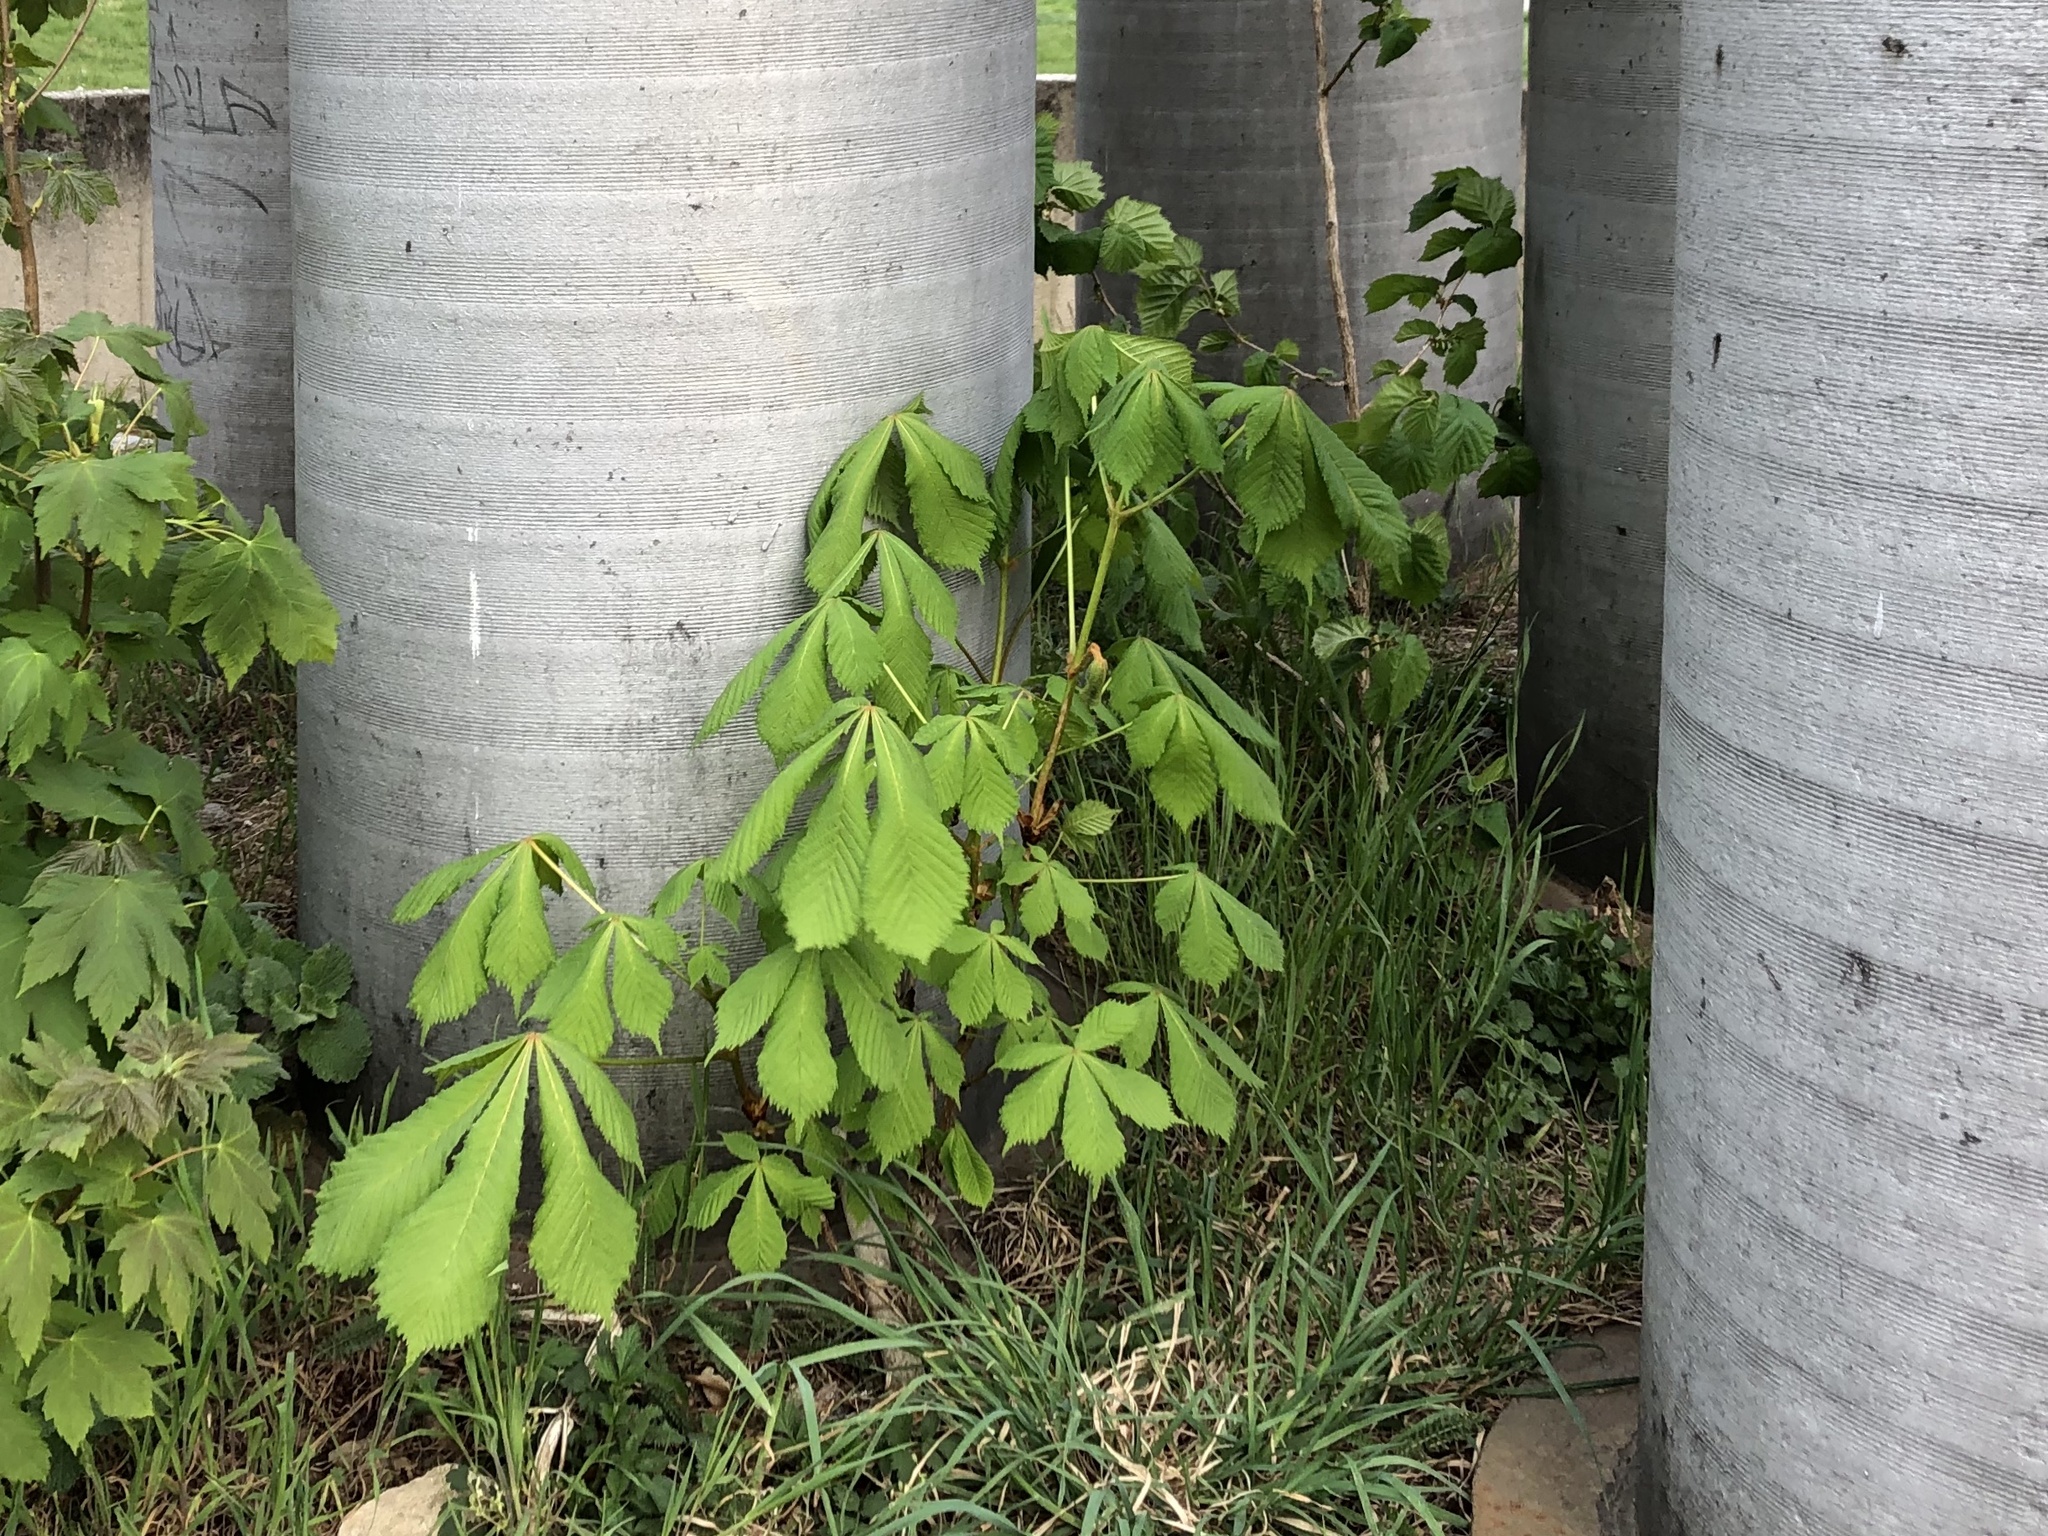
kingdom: Plantae
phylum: Tracheophyta
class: Magnoliopsida
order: Sapindales
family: Sapindaceae
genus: Aesculus
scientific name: Aesculus hippocastanum
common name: Horse-chestnut
